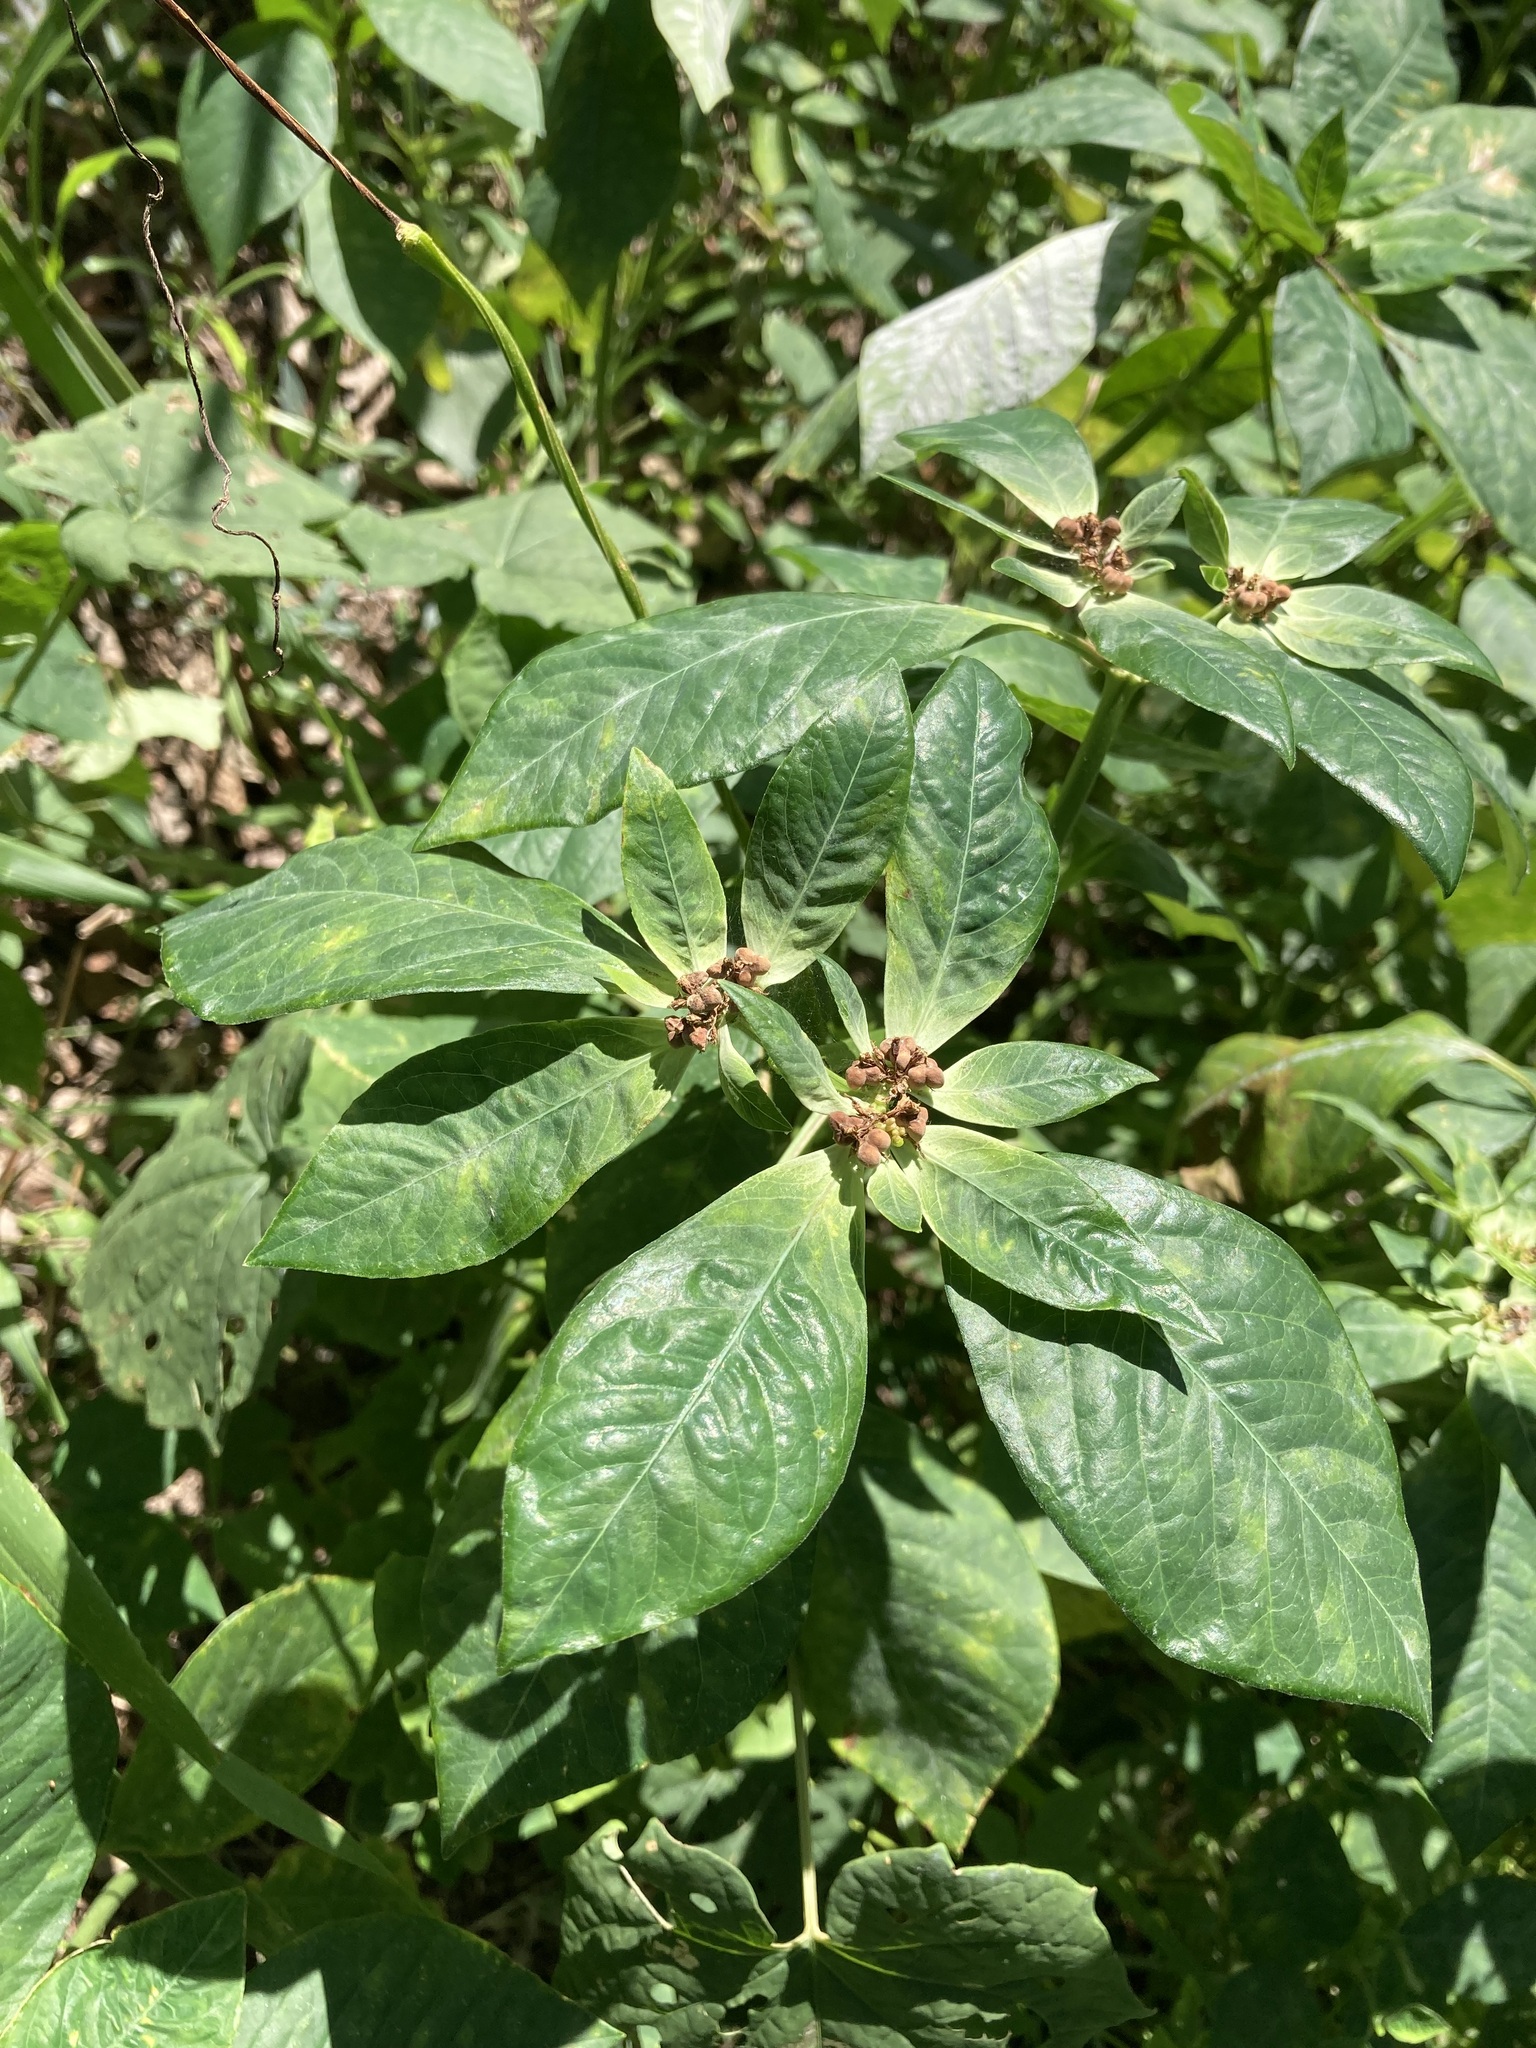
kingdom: Plantae
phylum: Tracheophyta
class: Magnoliopsida
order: Malpighiales
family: Euphorbiaceae
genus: Euphorbia
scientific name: Euphorbia heterophylla
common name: Mexican fireplant
